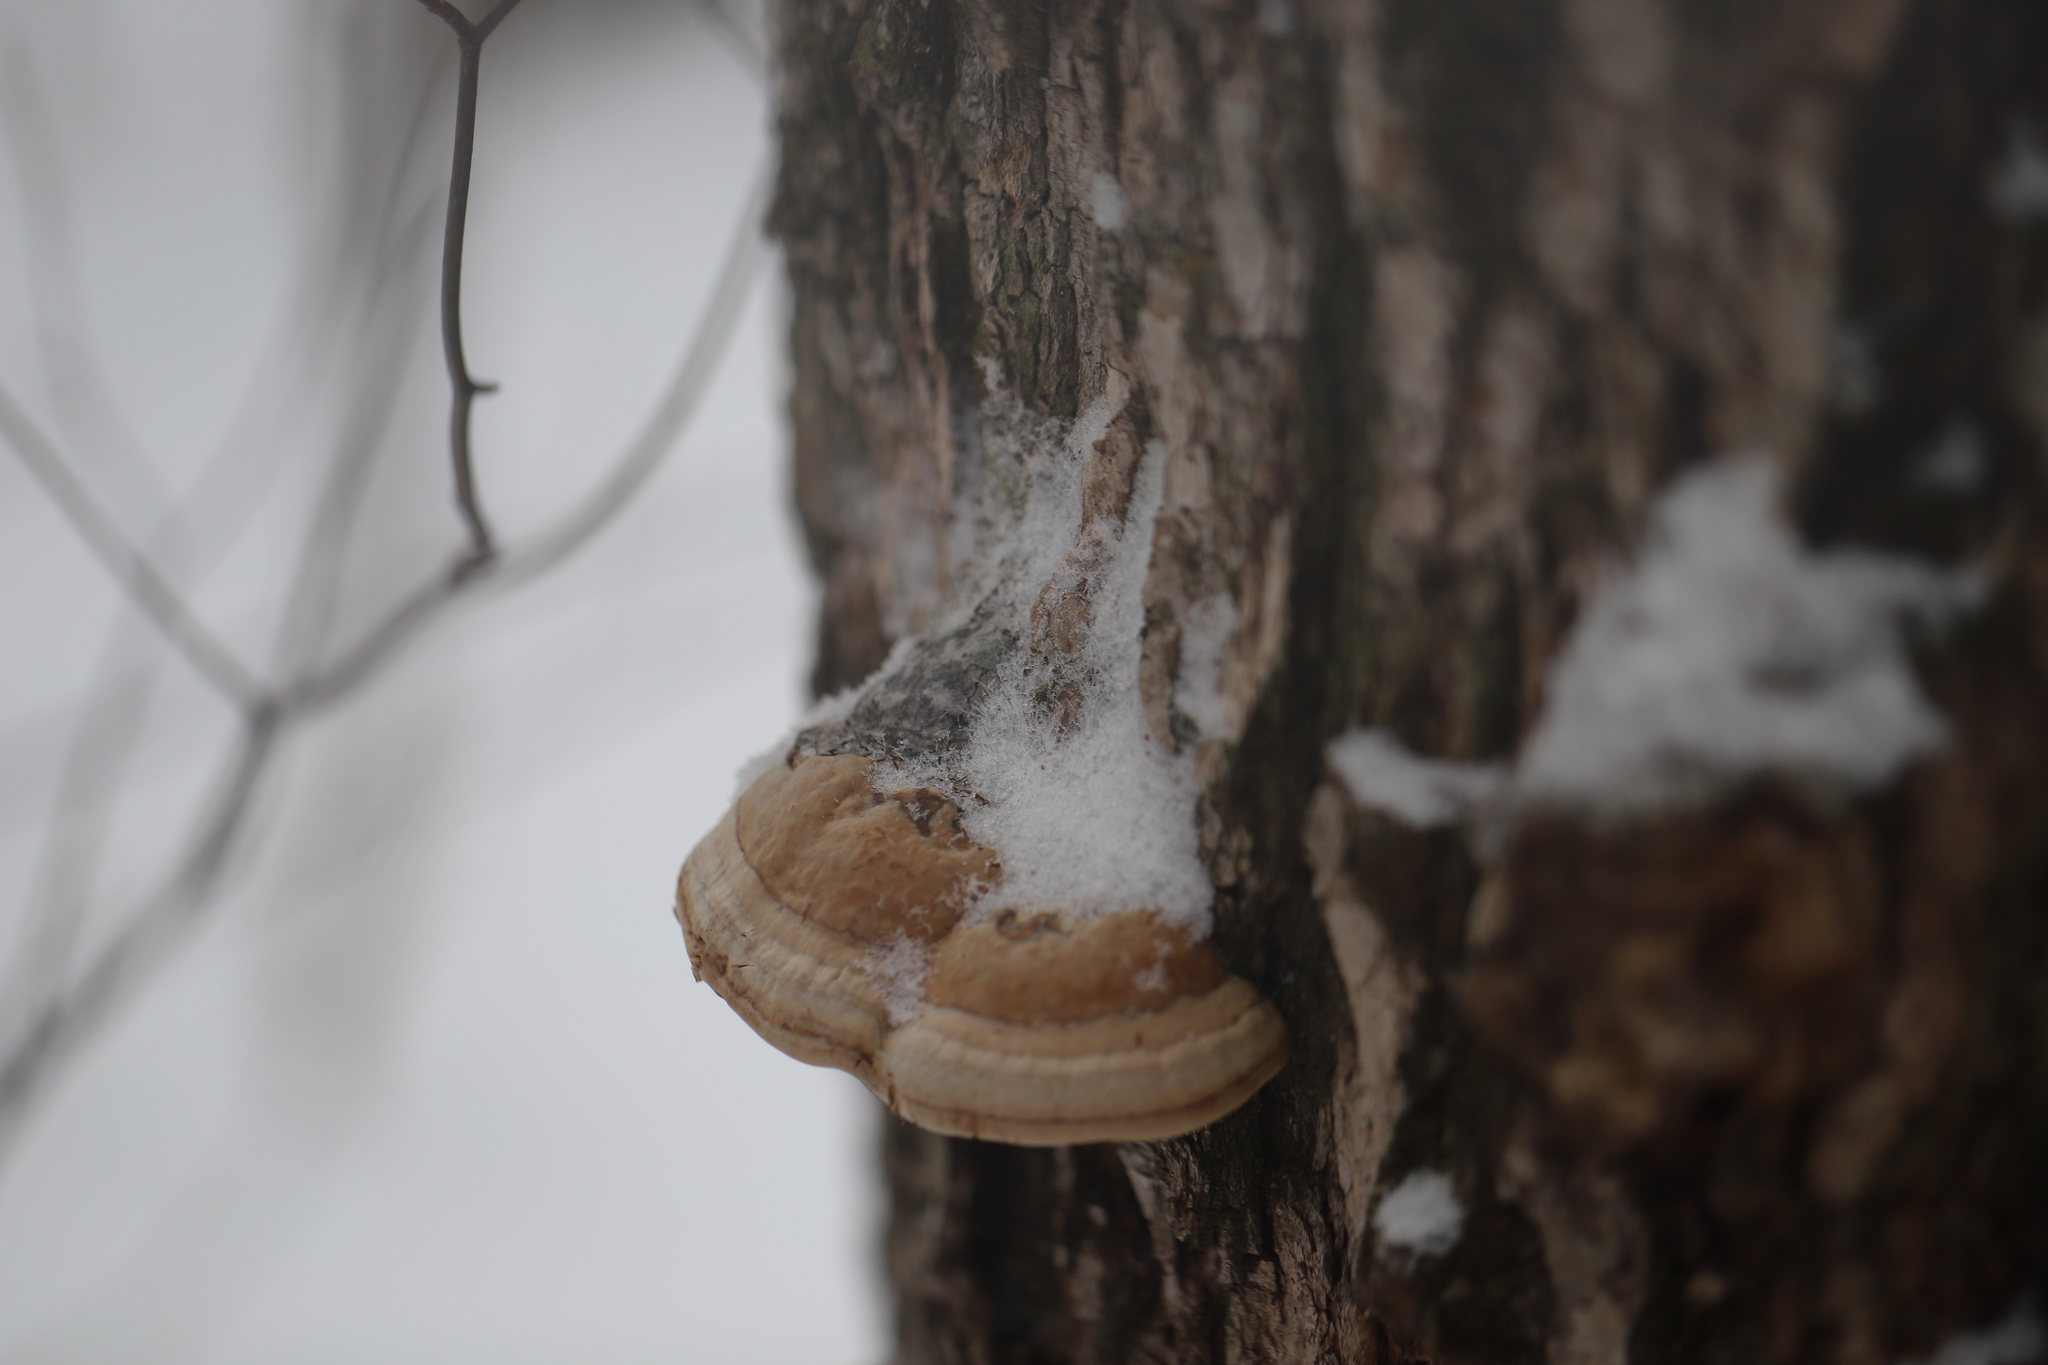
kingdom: Fungi
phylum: Basidiomycota
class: Agaricomycetes
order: Polyporales
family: Polyporaceae
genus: Fomes
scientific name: Fomes fomentarius
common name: Hoof fungus
